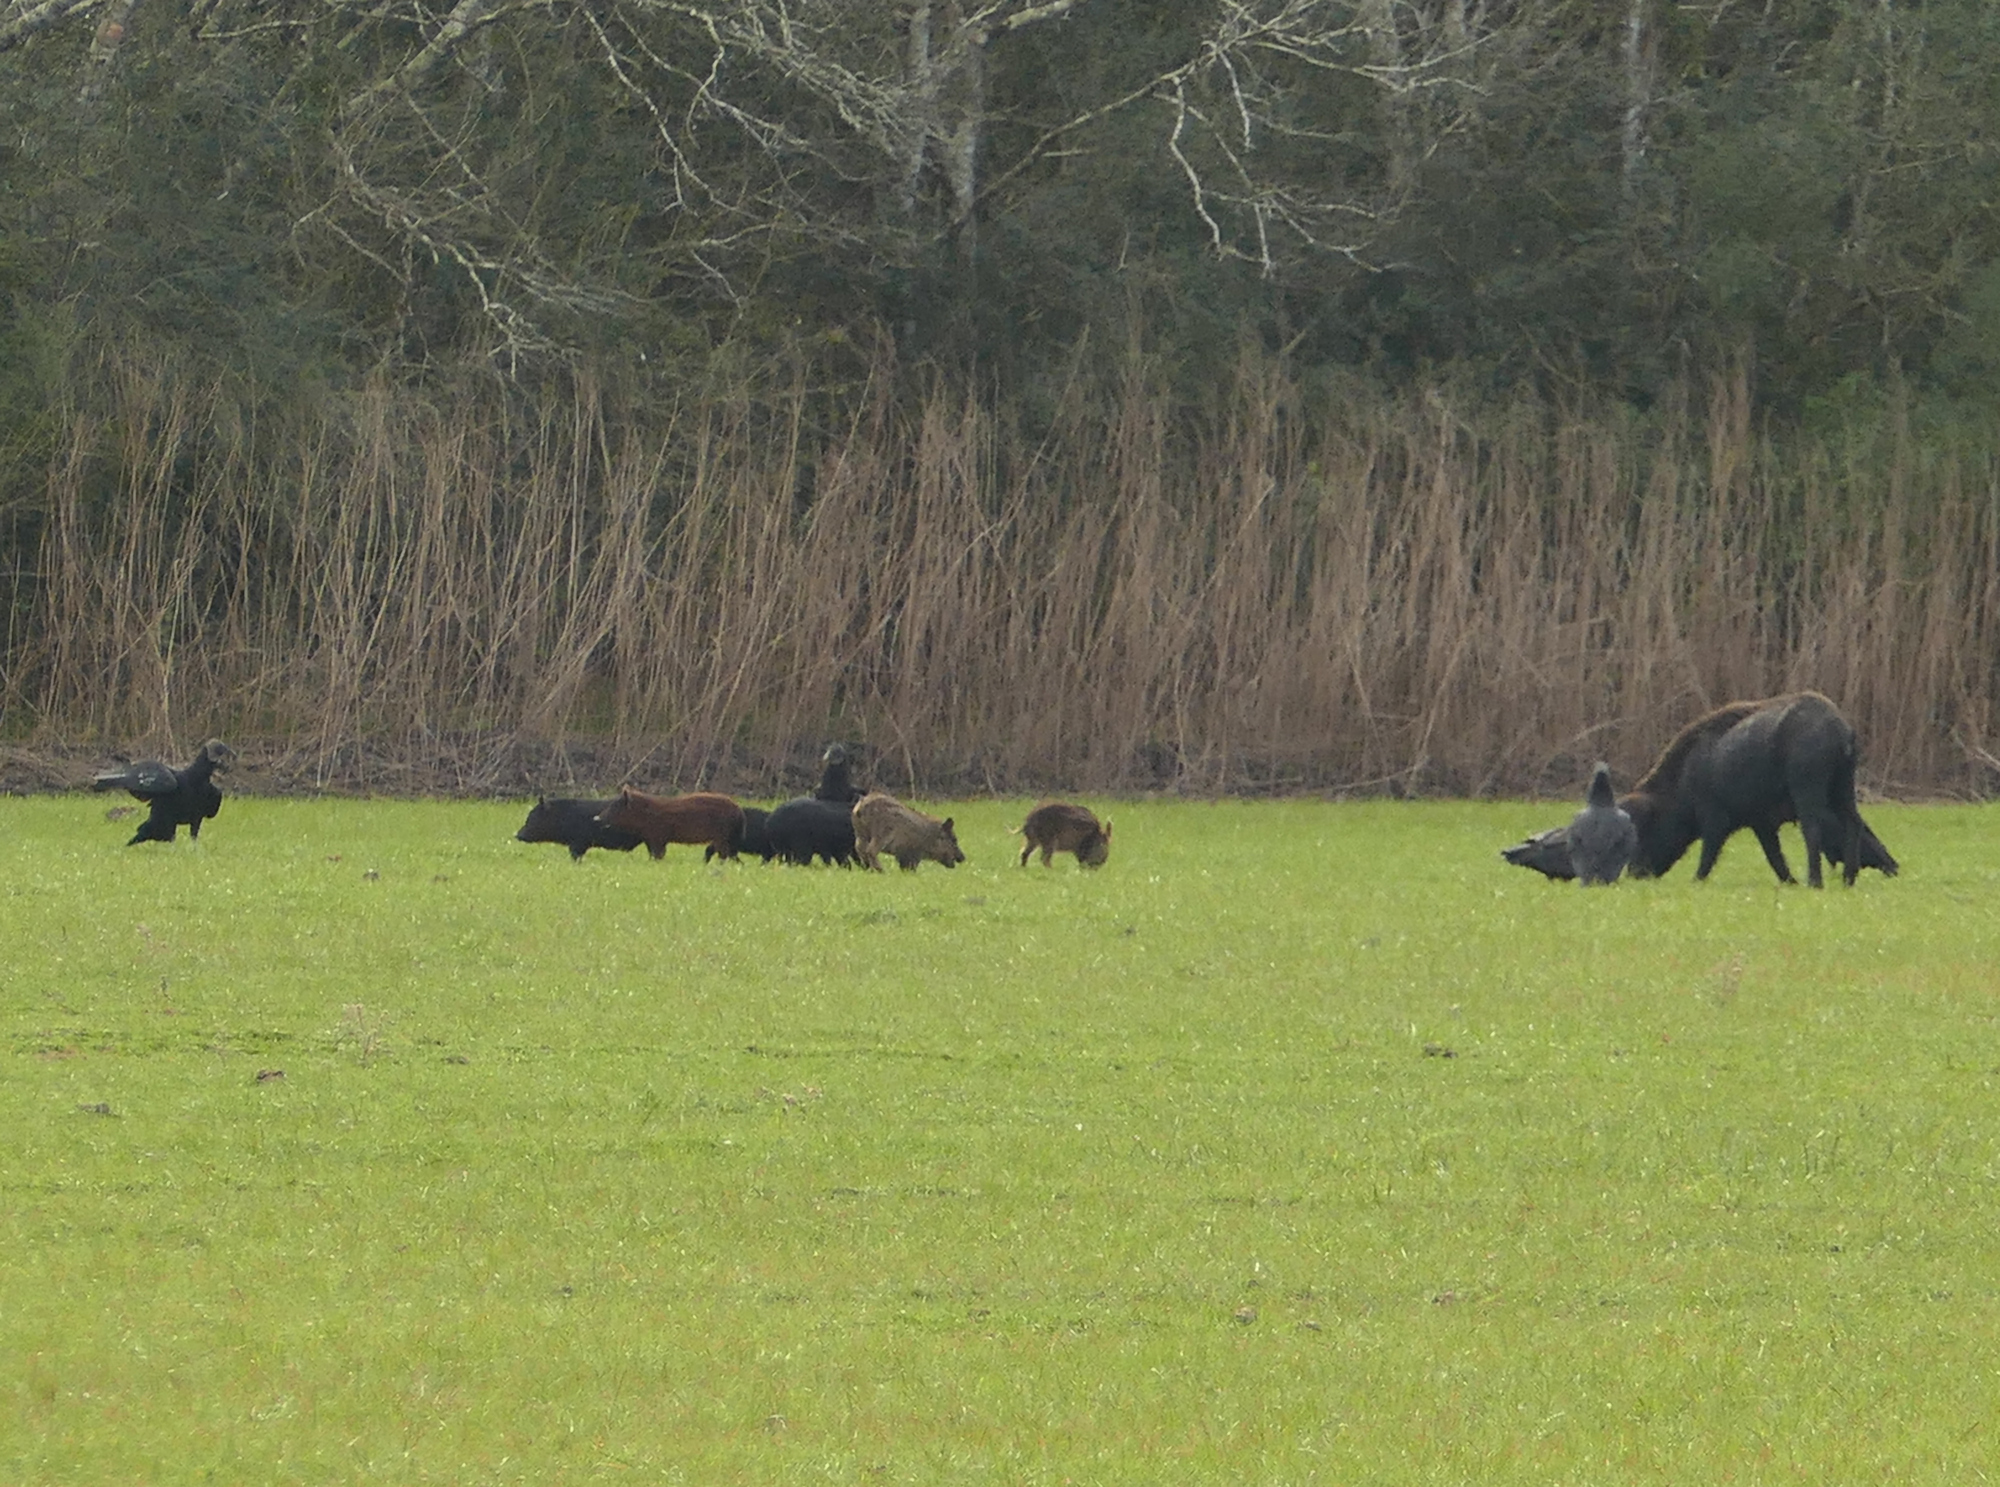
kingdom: Animalia
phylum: Chordata
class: Aves
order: Accipitriformes
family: Cathartidae
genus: Coragyps
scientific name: Coragyps atratus
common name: Black vulture
